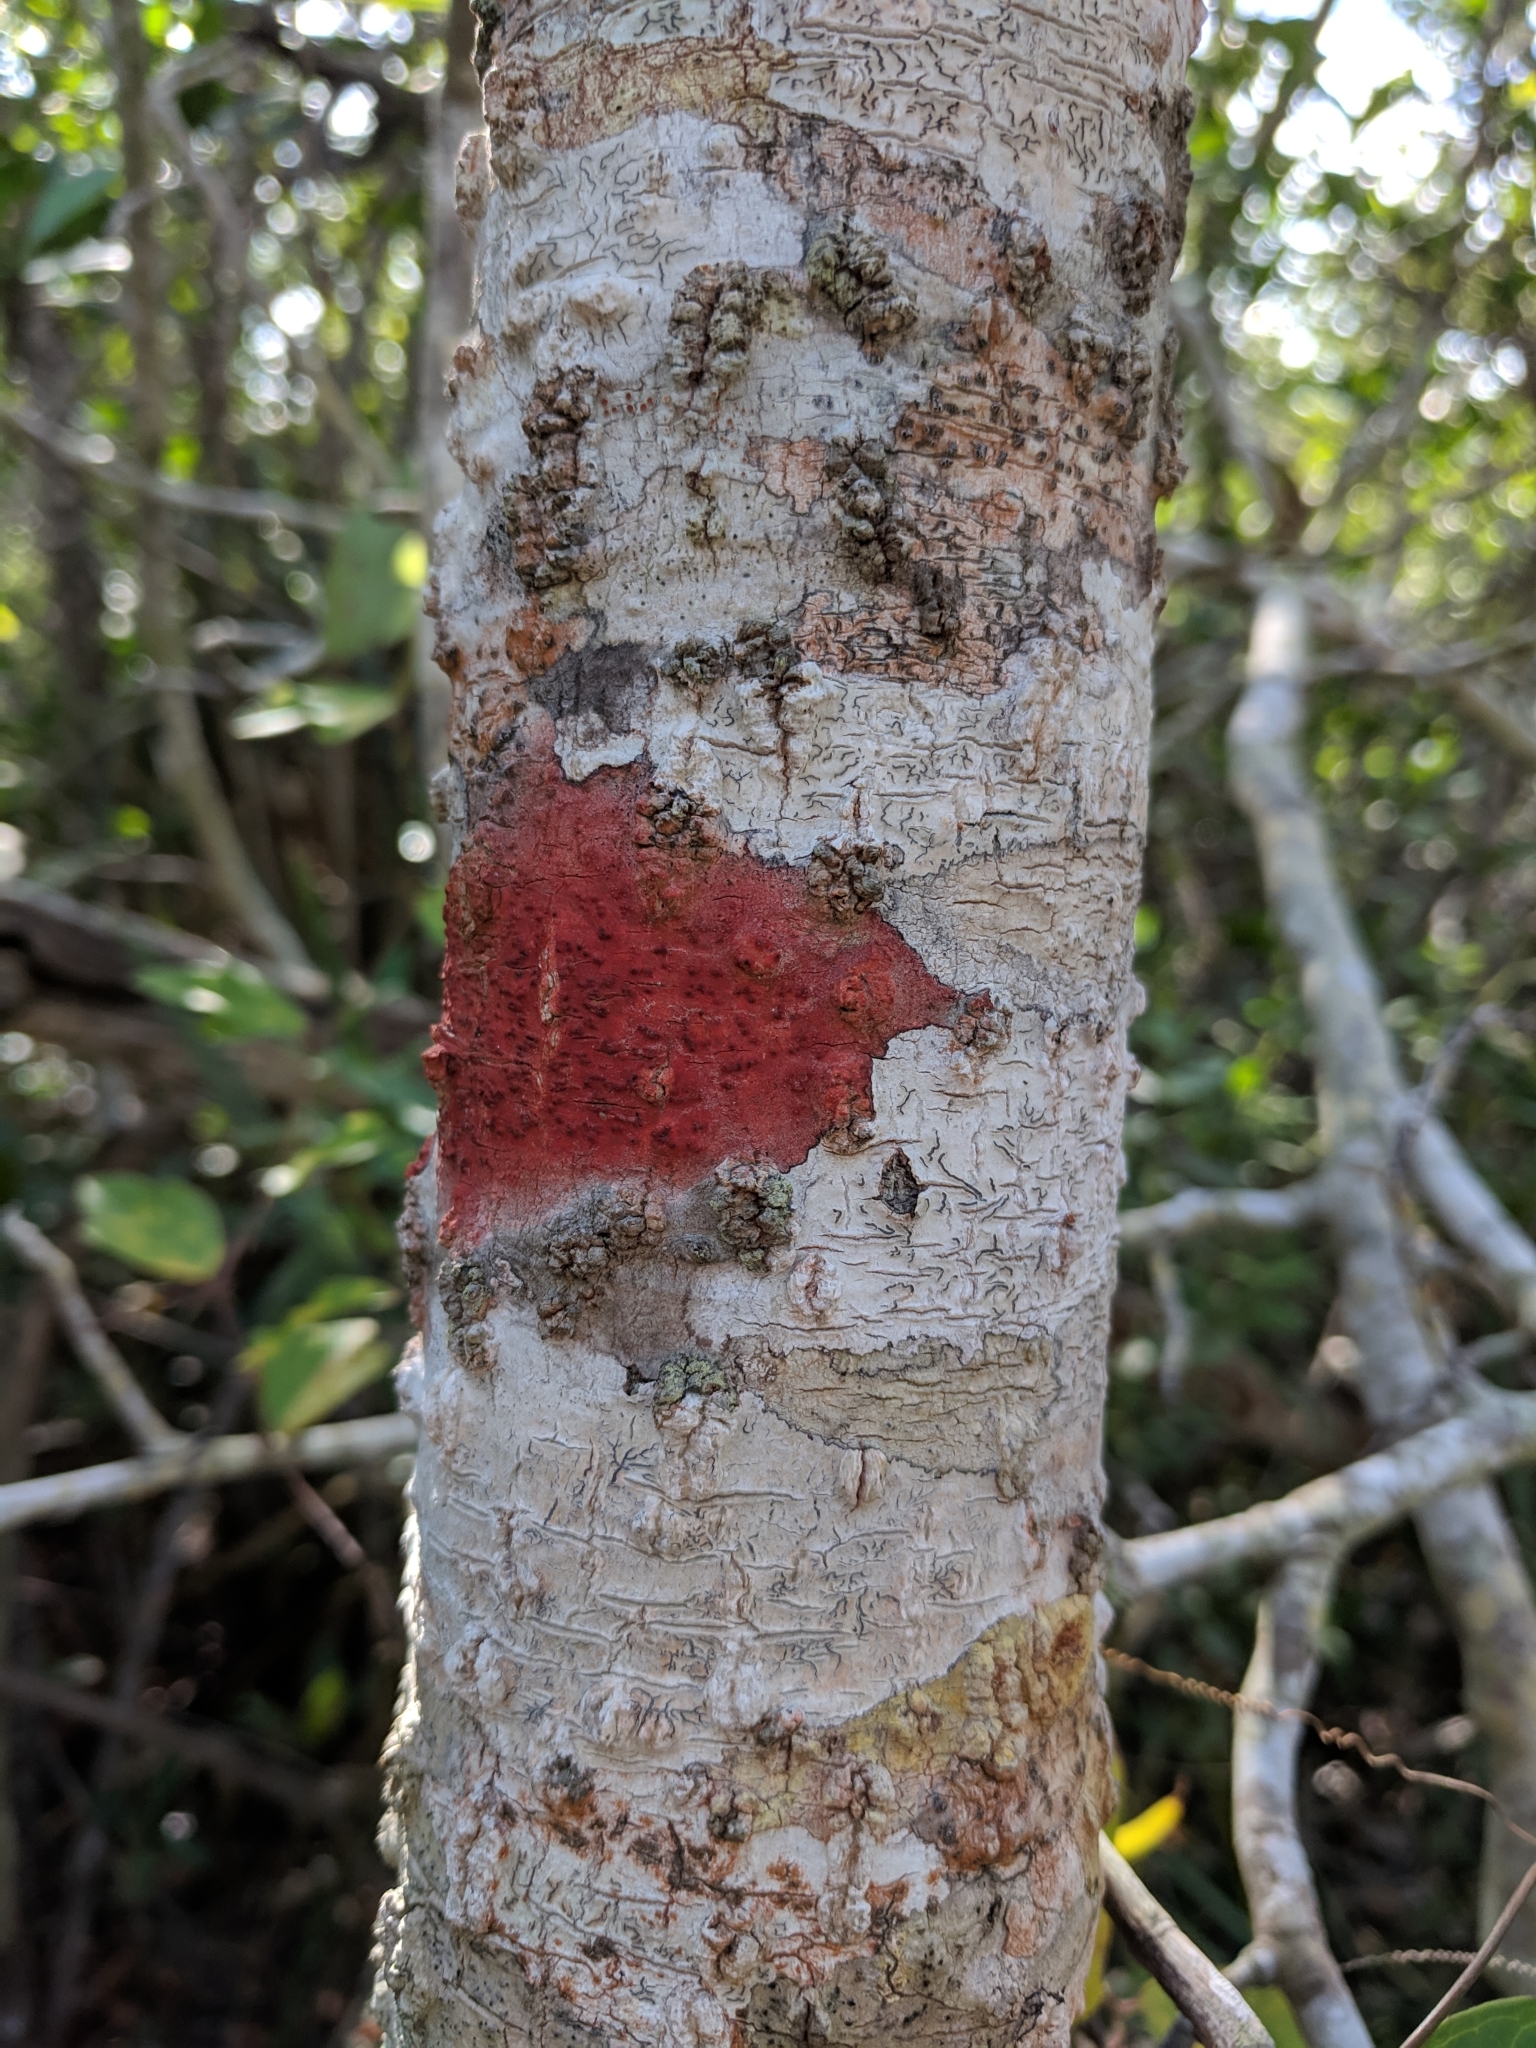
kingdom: Fungi
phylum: Ascomycota
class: Eurotiomycetes
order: Pyrenulales
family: Pyrenulaceae
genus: Pyrenula
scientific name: Pyrenula
